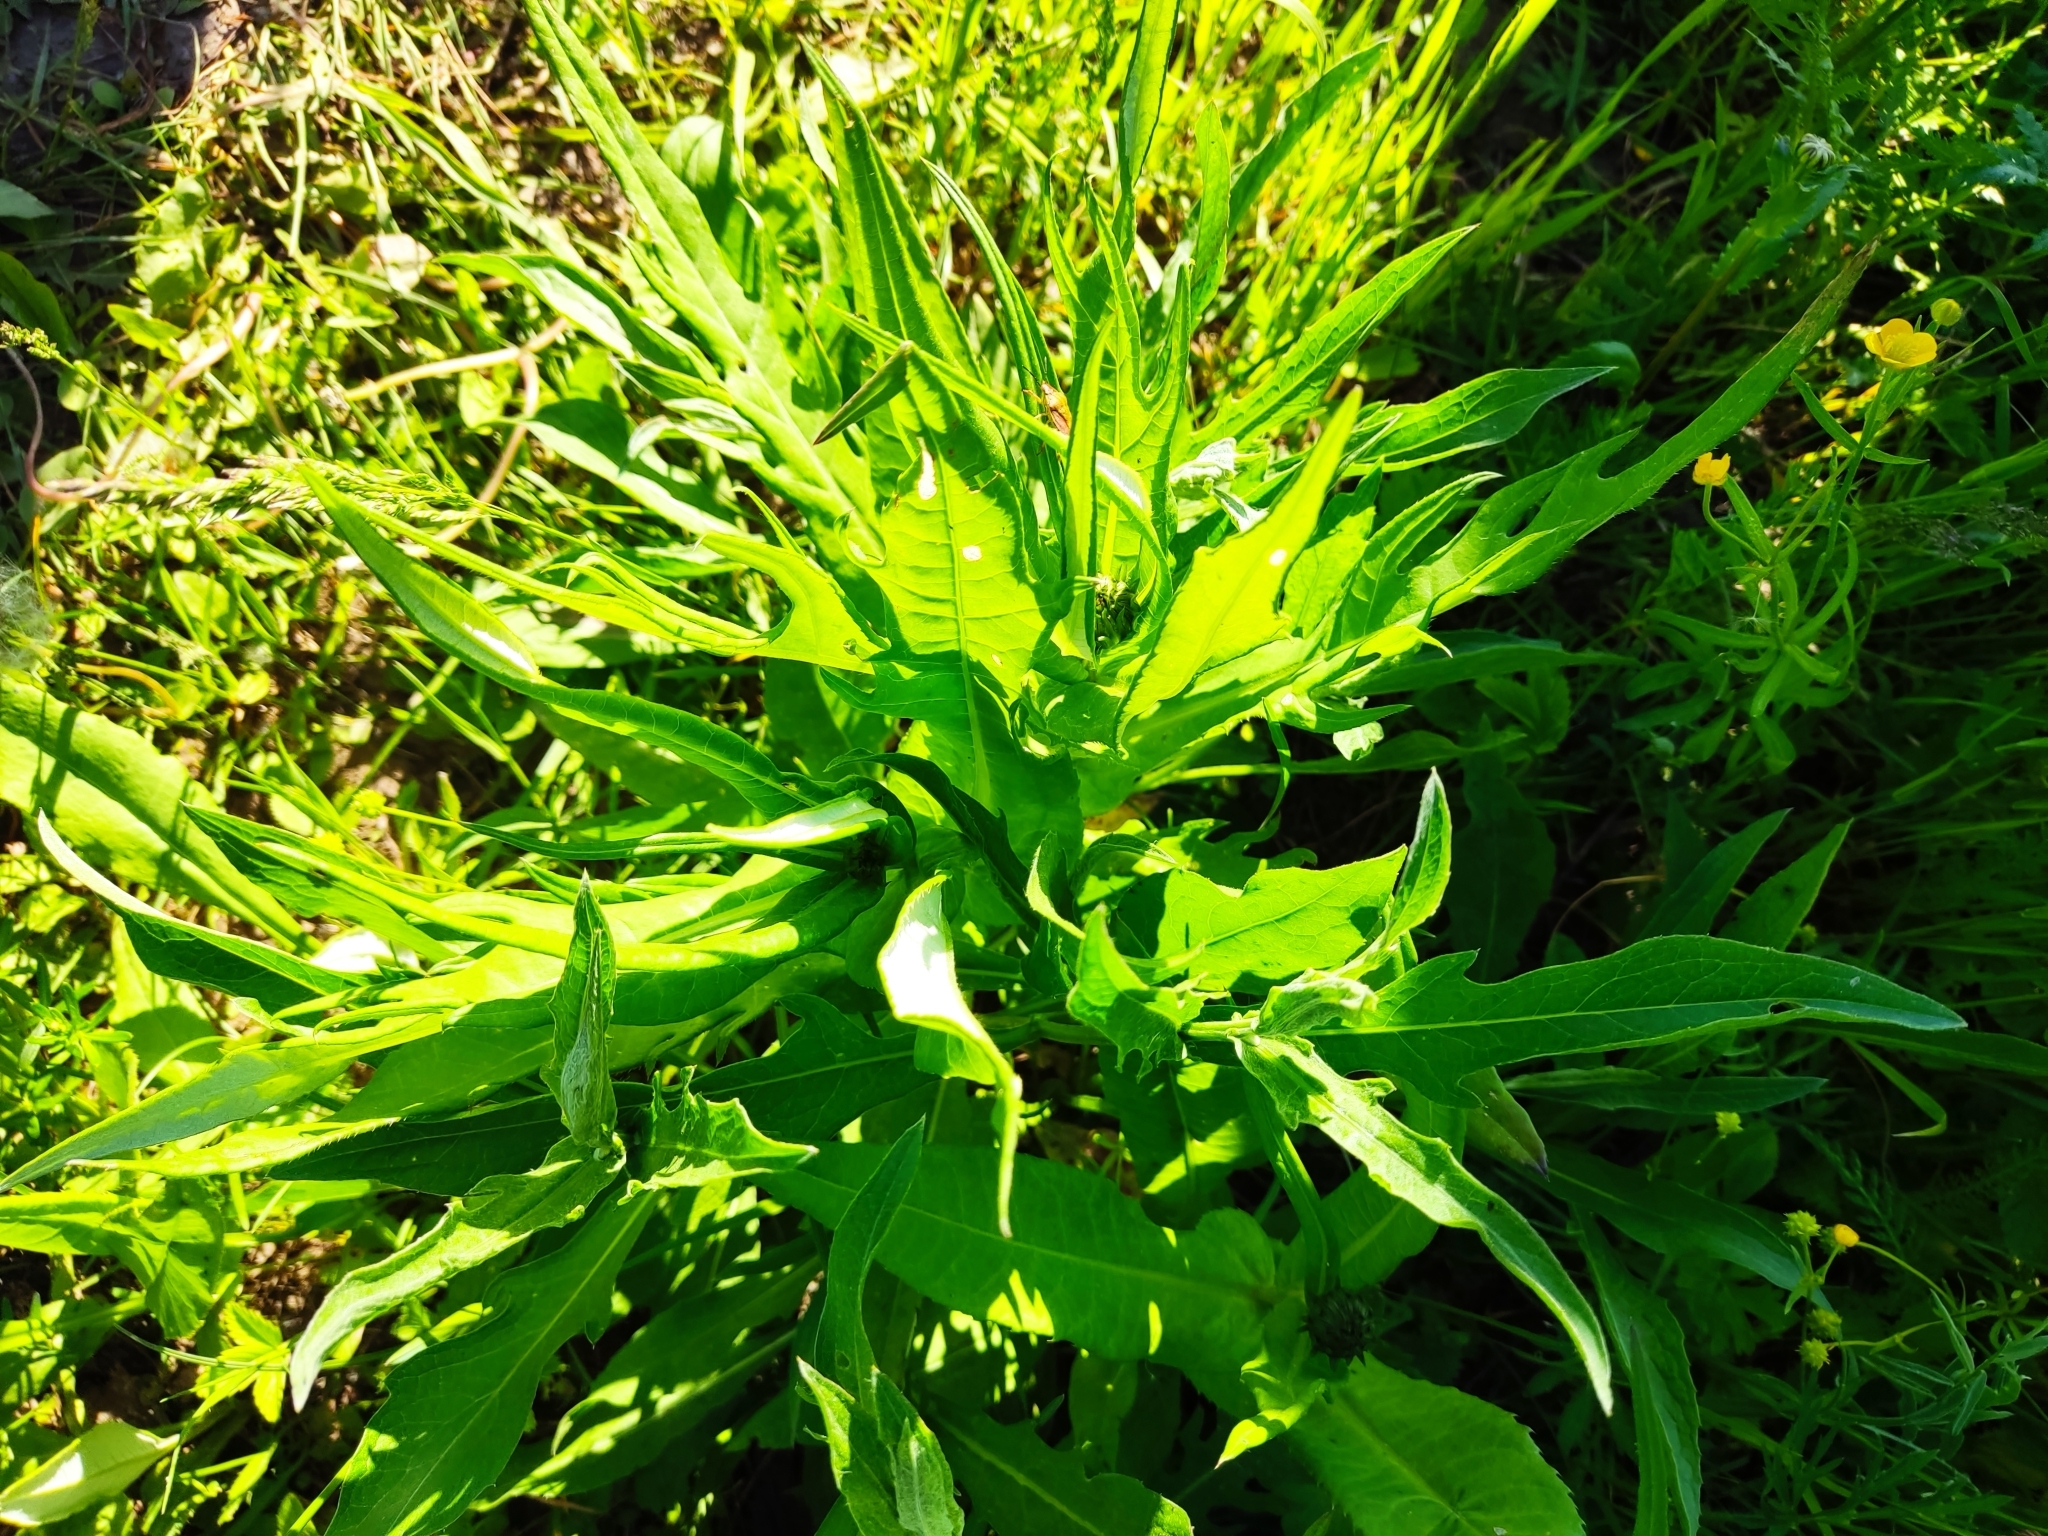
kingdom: Plantae
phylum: Tracheophyta
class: Magnoliopsida
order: Asterales
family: Asteraceae
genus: Cirsium
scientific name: Cirsium heterophyllum
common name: Melancholy thistle
